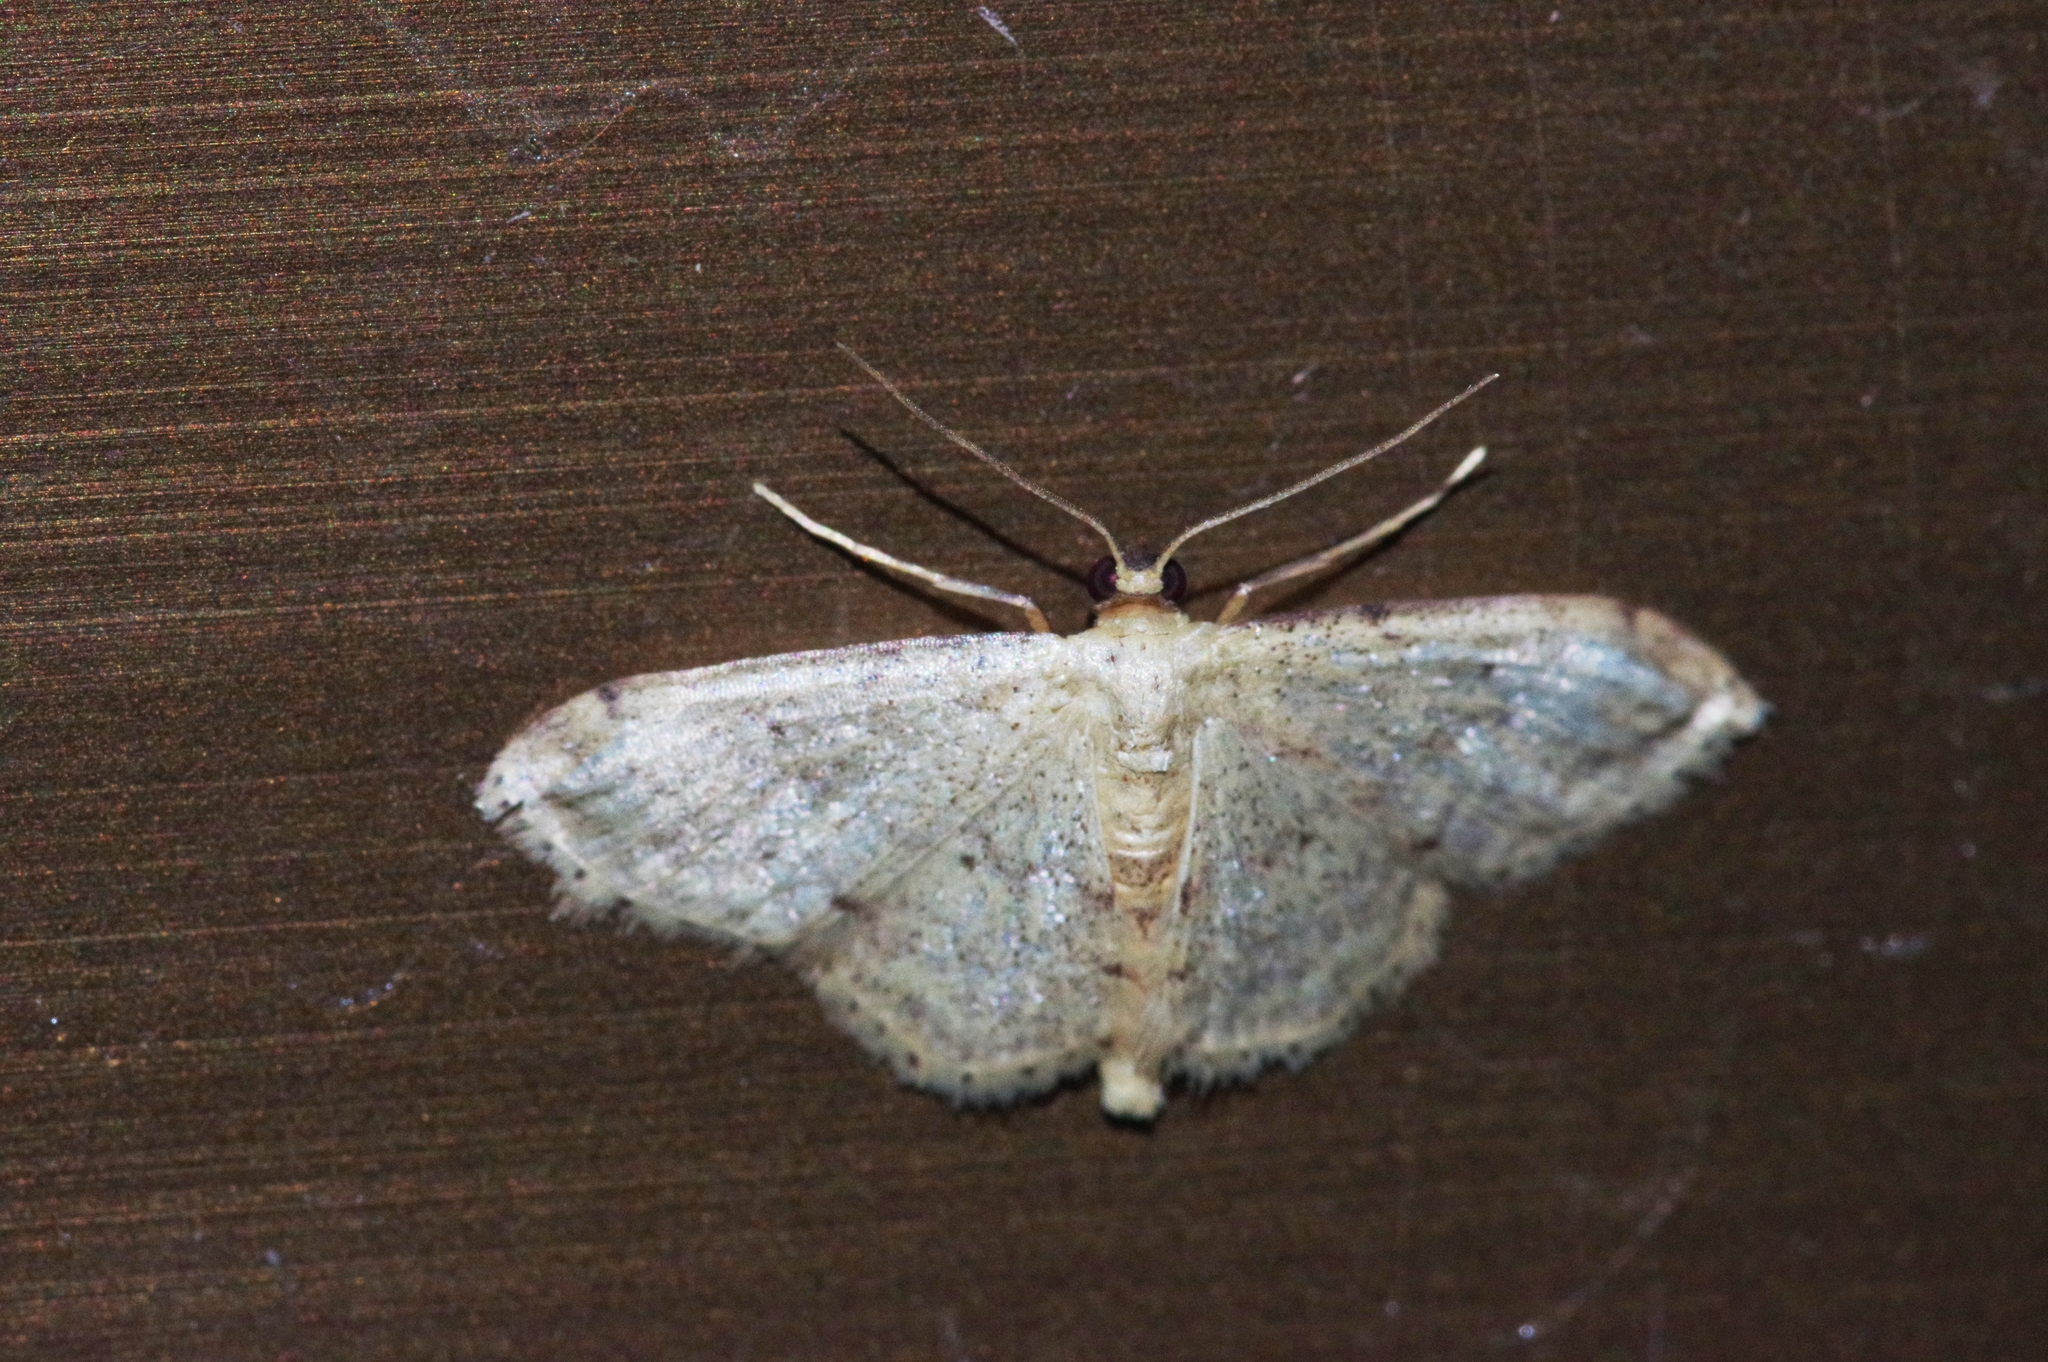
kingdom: Animalia
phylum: Arthropoda
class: Insecta
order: Lepidoptera
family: Geometridae
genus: Idaea
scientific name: Idaea sakuraii
